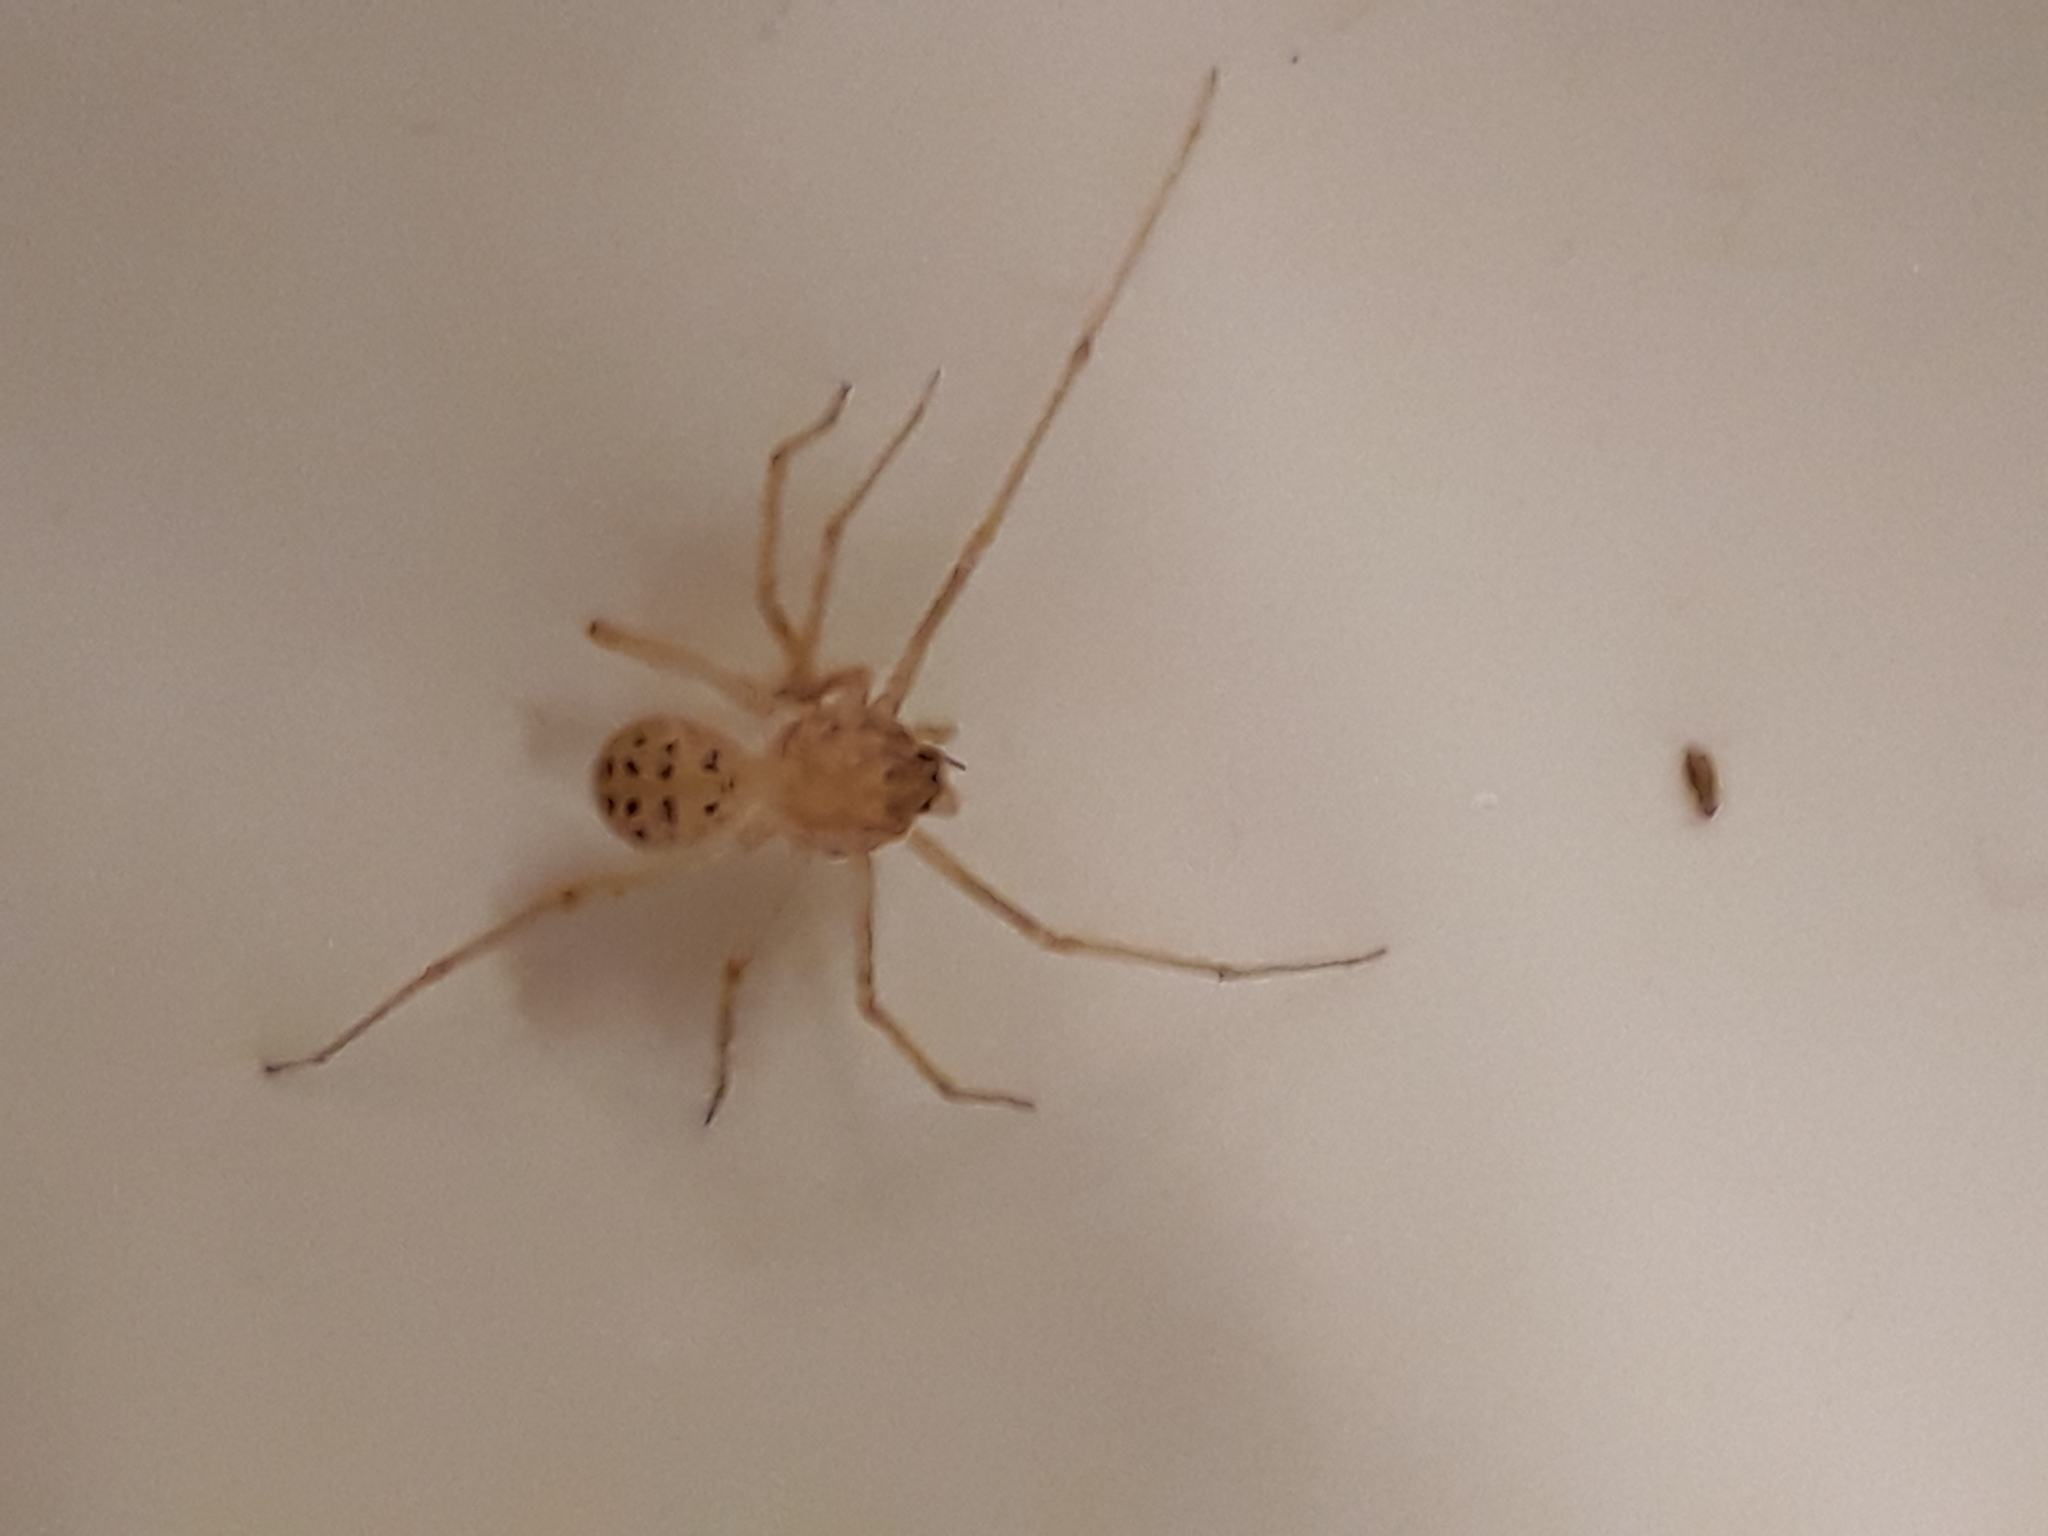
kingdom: Animalia
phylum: Arthropoda
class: Arachnida
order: Araneae
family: Scytodidae
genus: Scytodes
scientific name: Scytodes univittata
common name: Spitting spider
